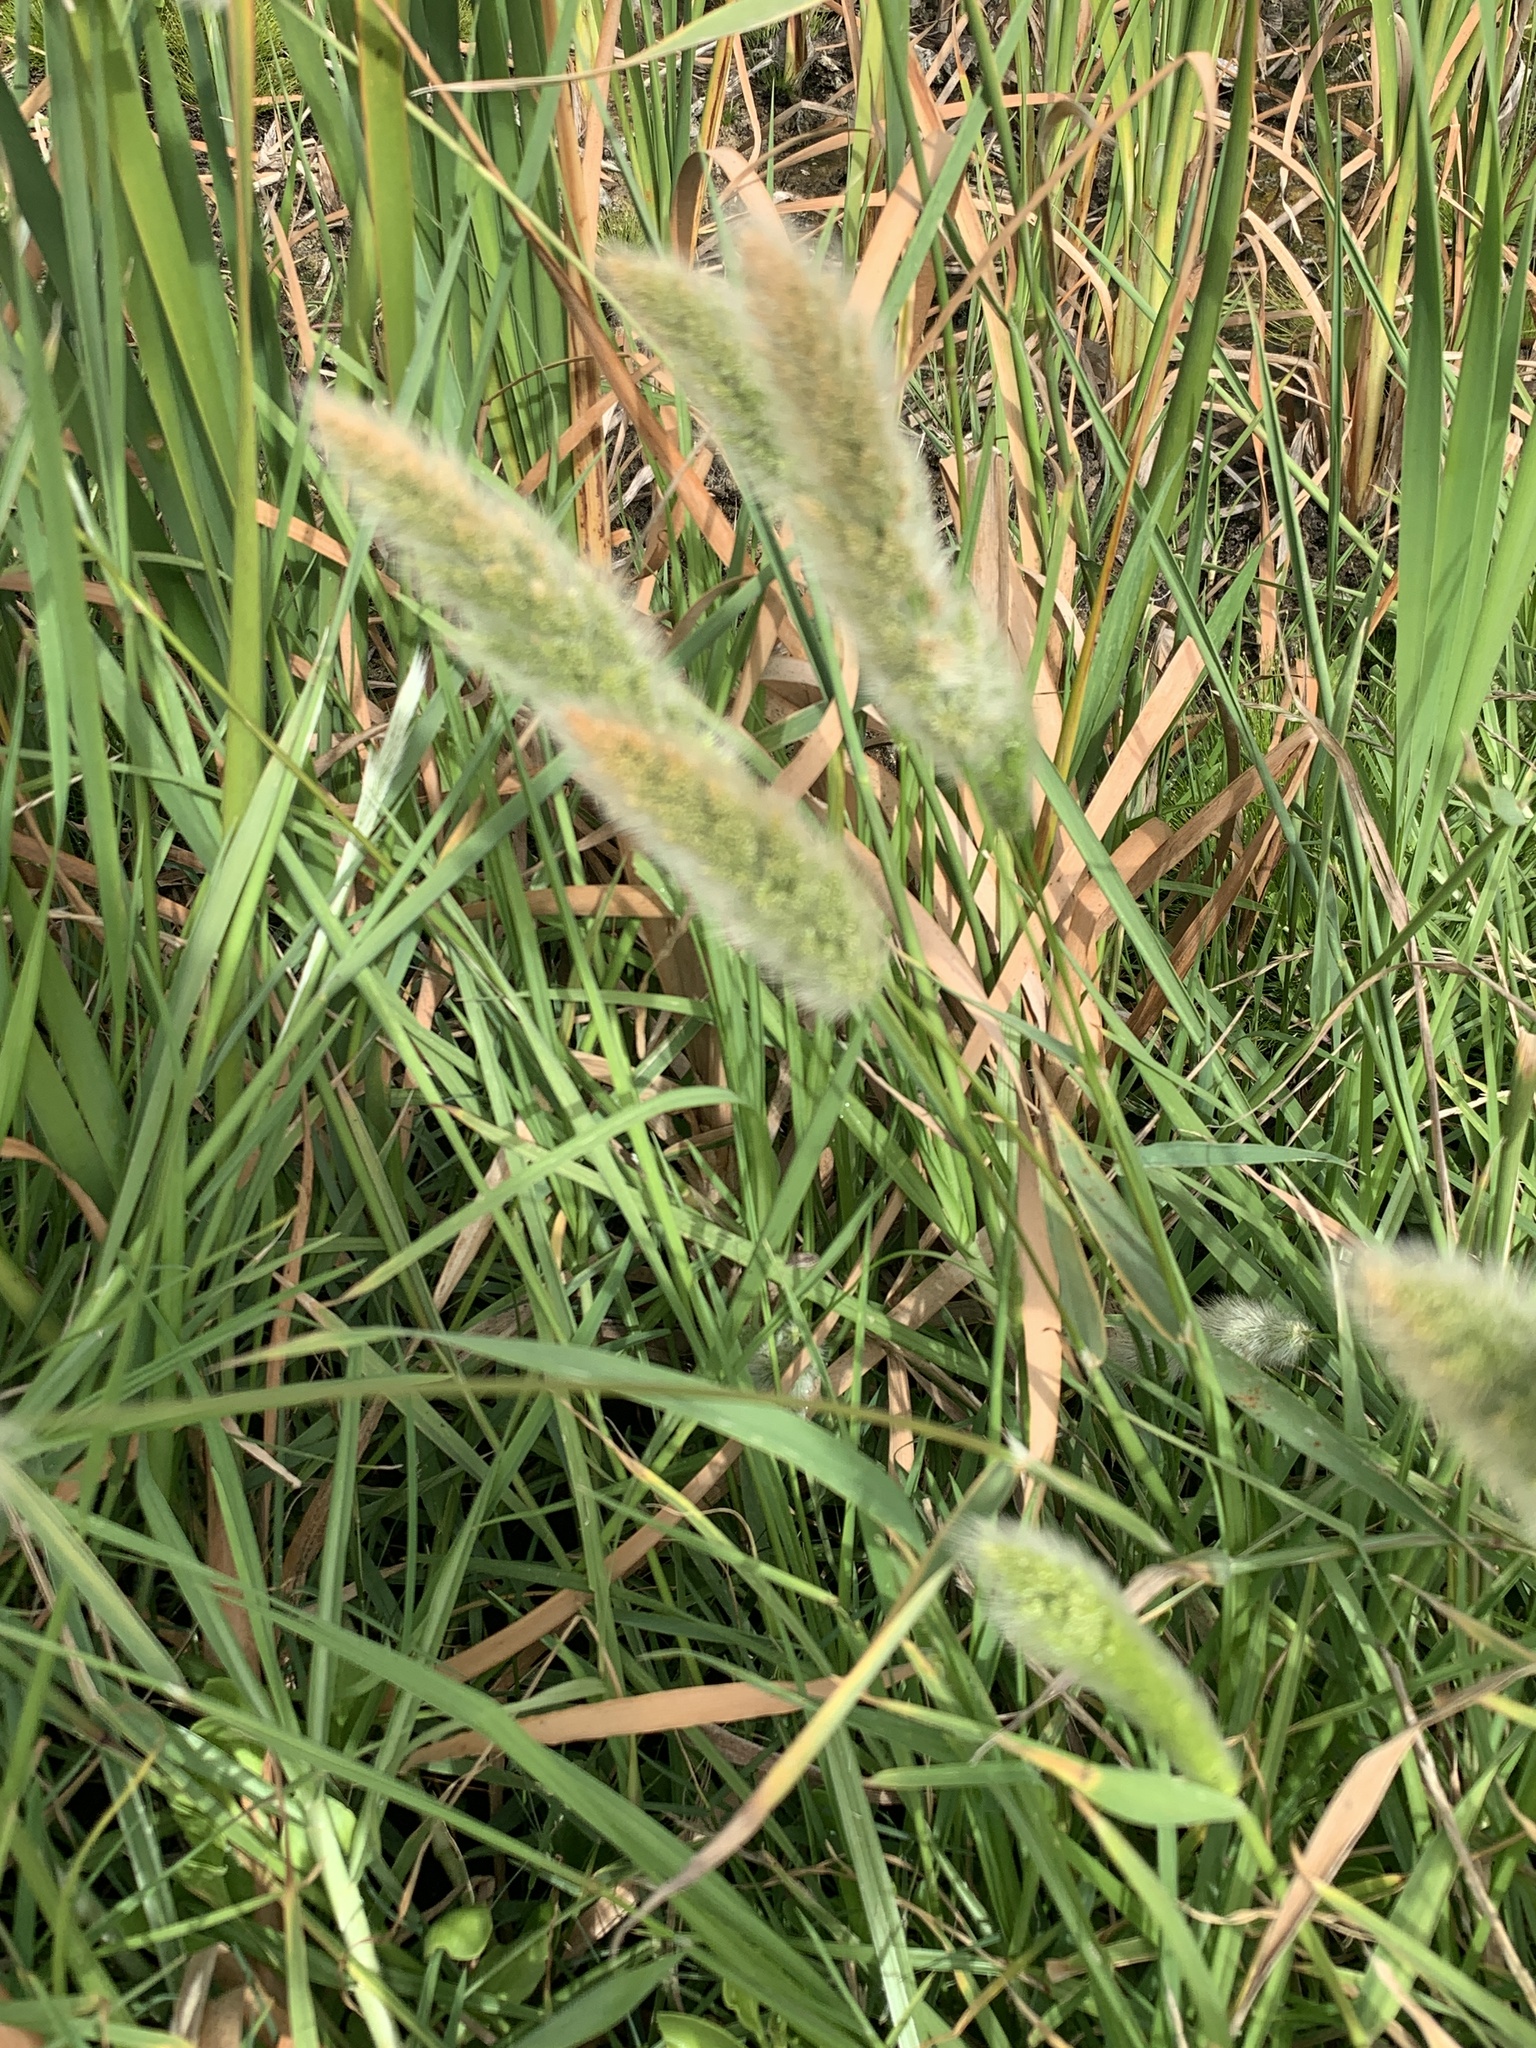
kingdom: Plantae
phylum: Tracheophyta
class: Liliopsida
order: Poales
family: Poaceae
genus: Polypogon
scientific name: Polypogon monspeliensis
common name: Annual rabbitsfoot grass
